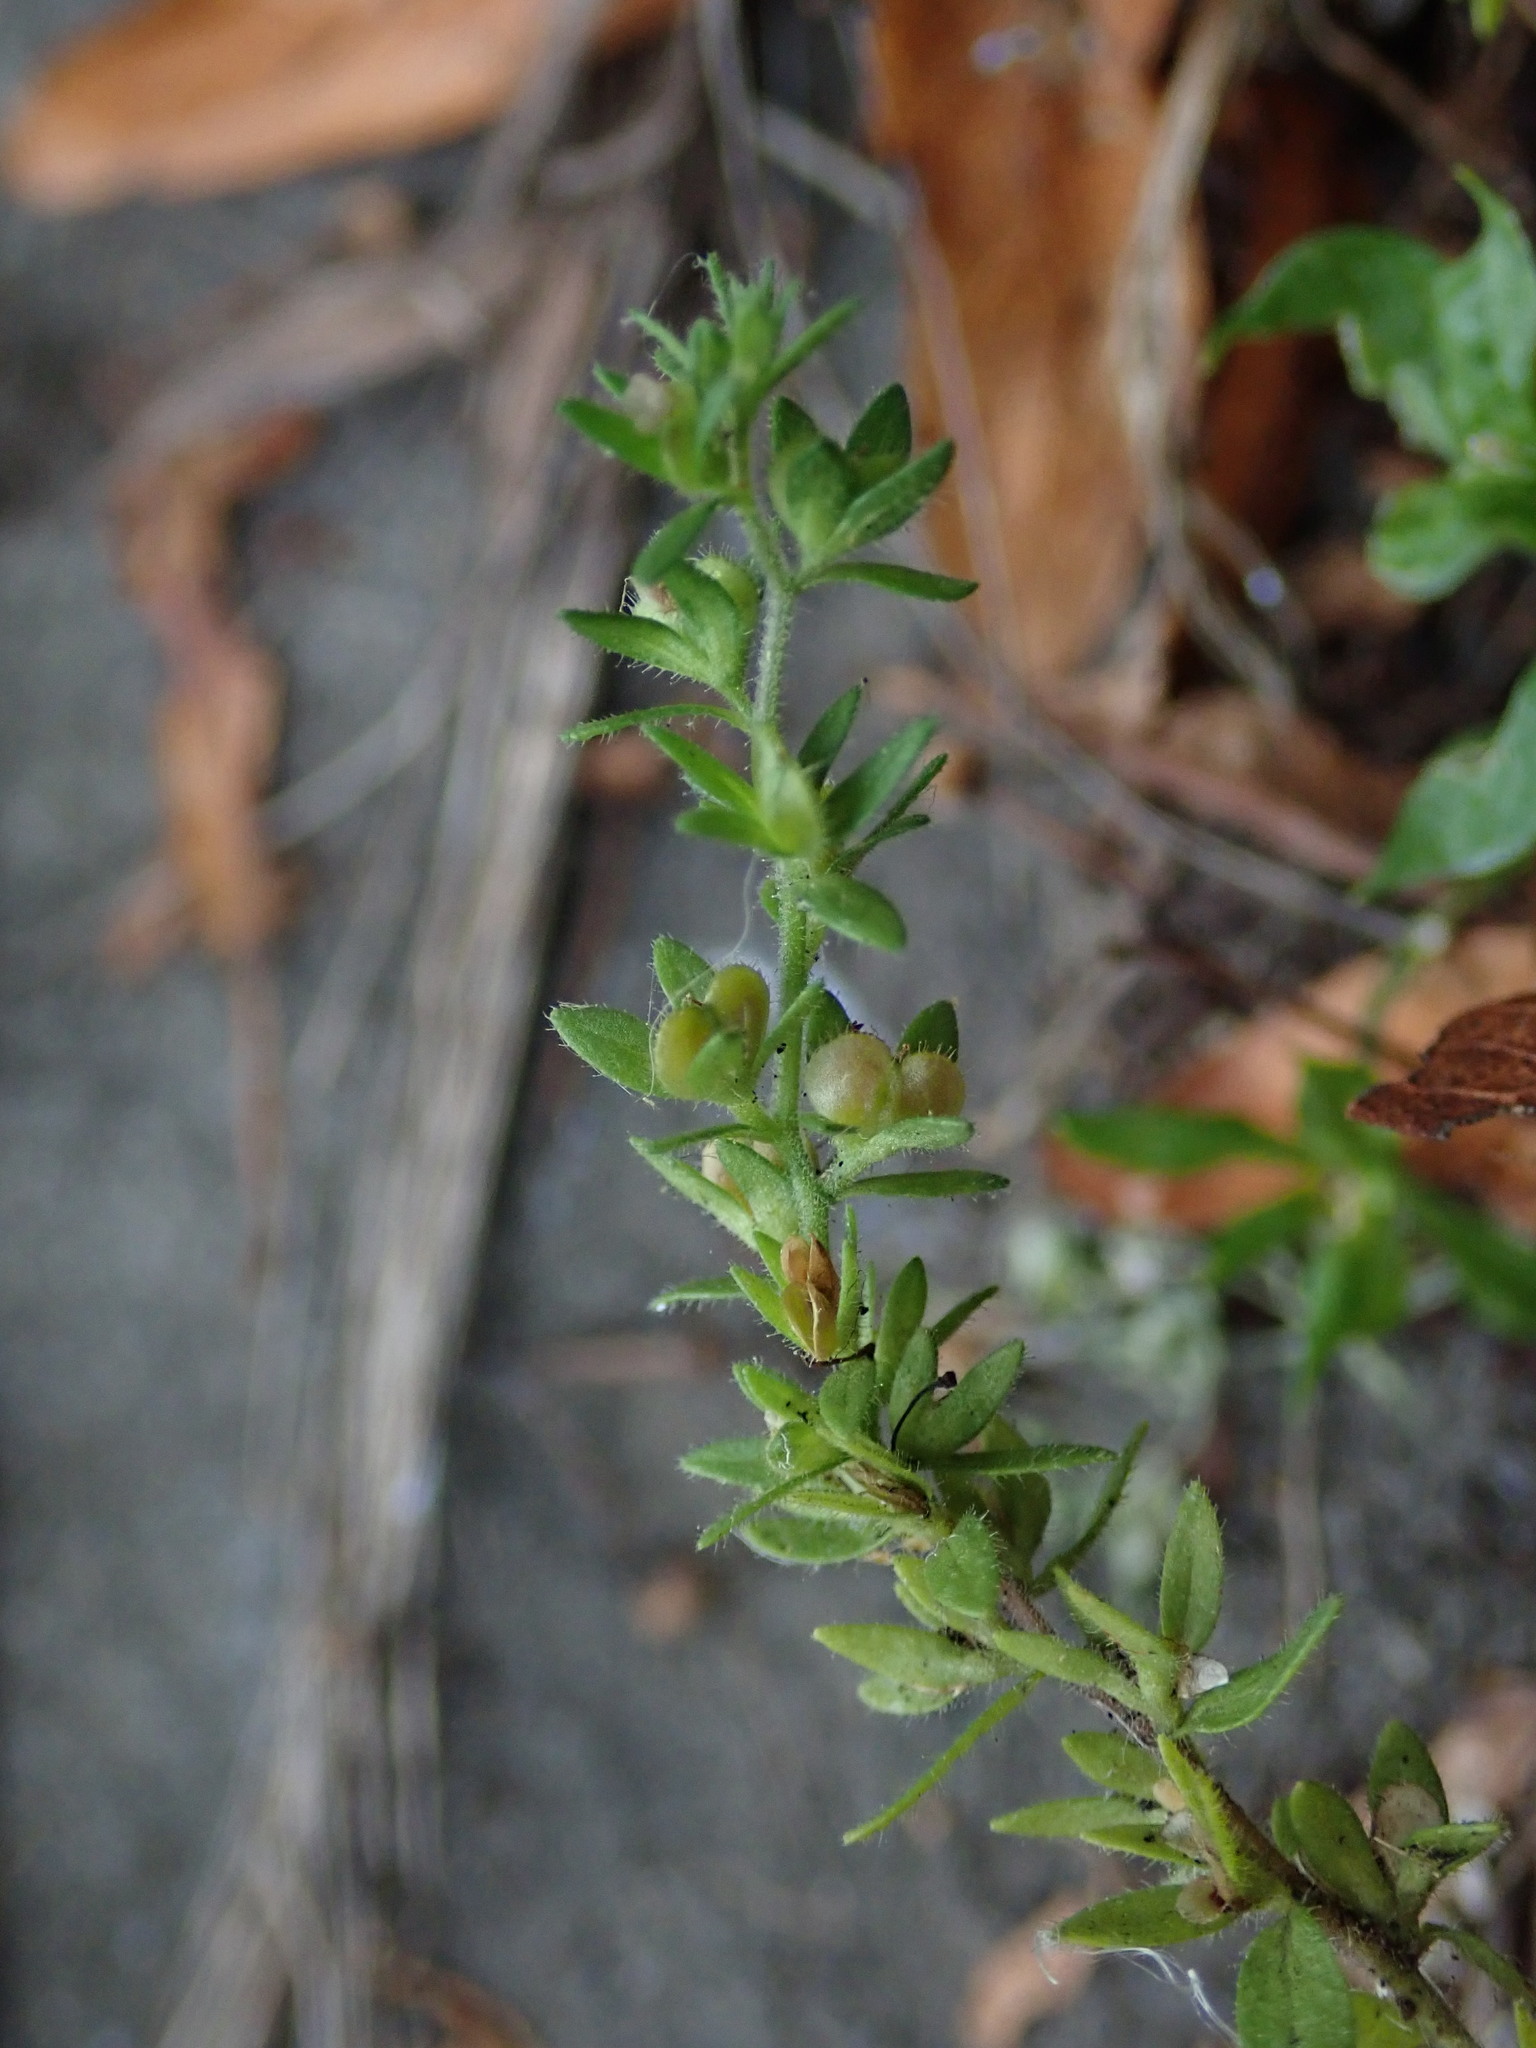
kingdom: Plantae
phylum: Tracheophyta
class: Magnoliopsida
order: Lamiales
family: Plantaginaceae
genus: Veronica
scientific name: Veronica arvensis
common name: Corn speedwell
